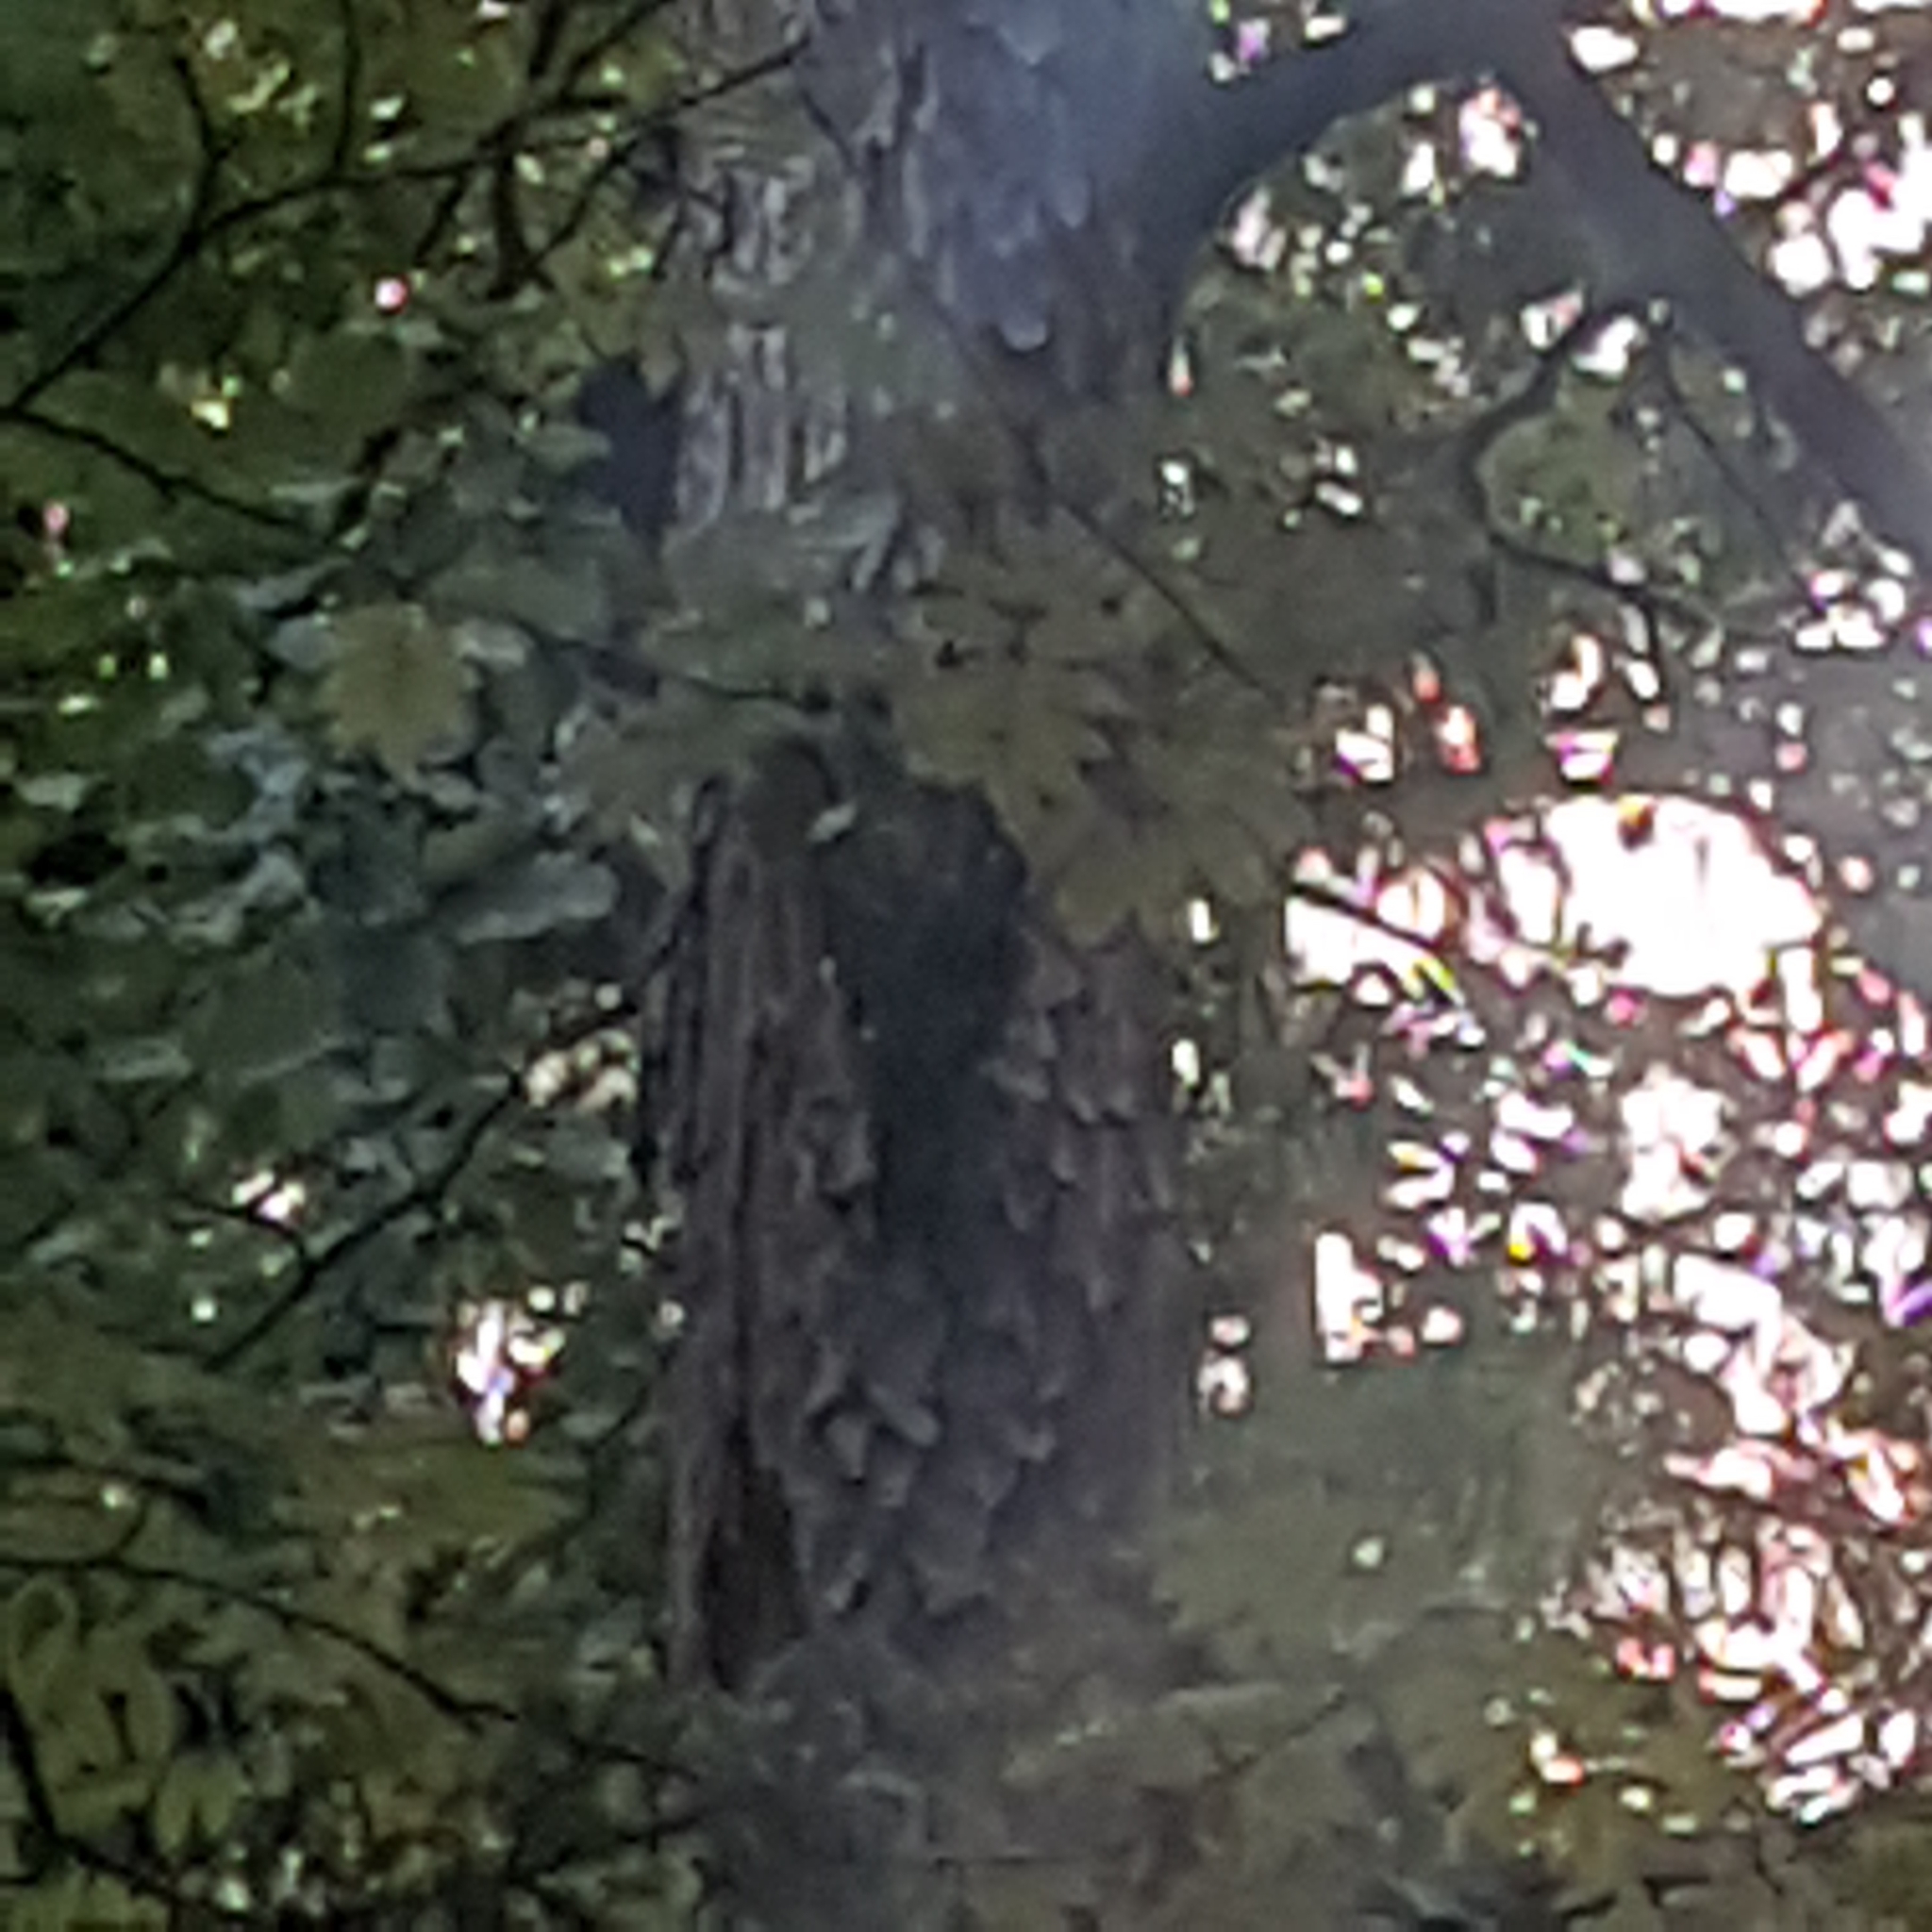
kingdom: Animalia
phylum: Chordata
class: Aves
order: Piciformes
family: Picidae
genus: Dryocopus
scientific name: Dryocopus martius
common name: Black woodpecker
